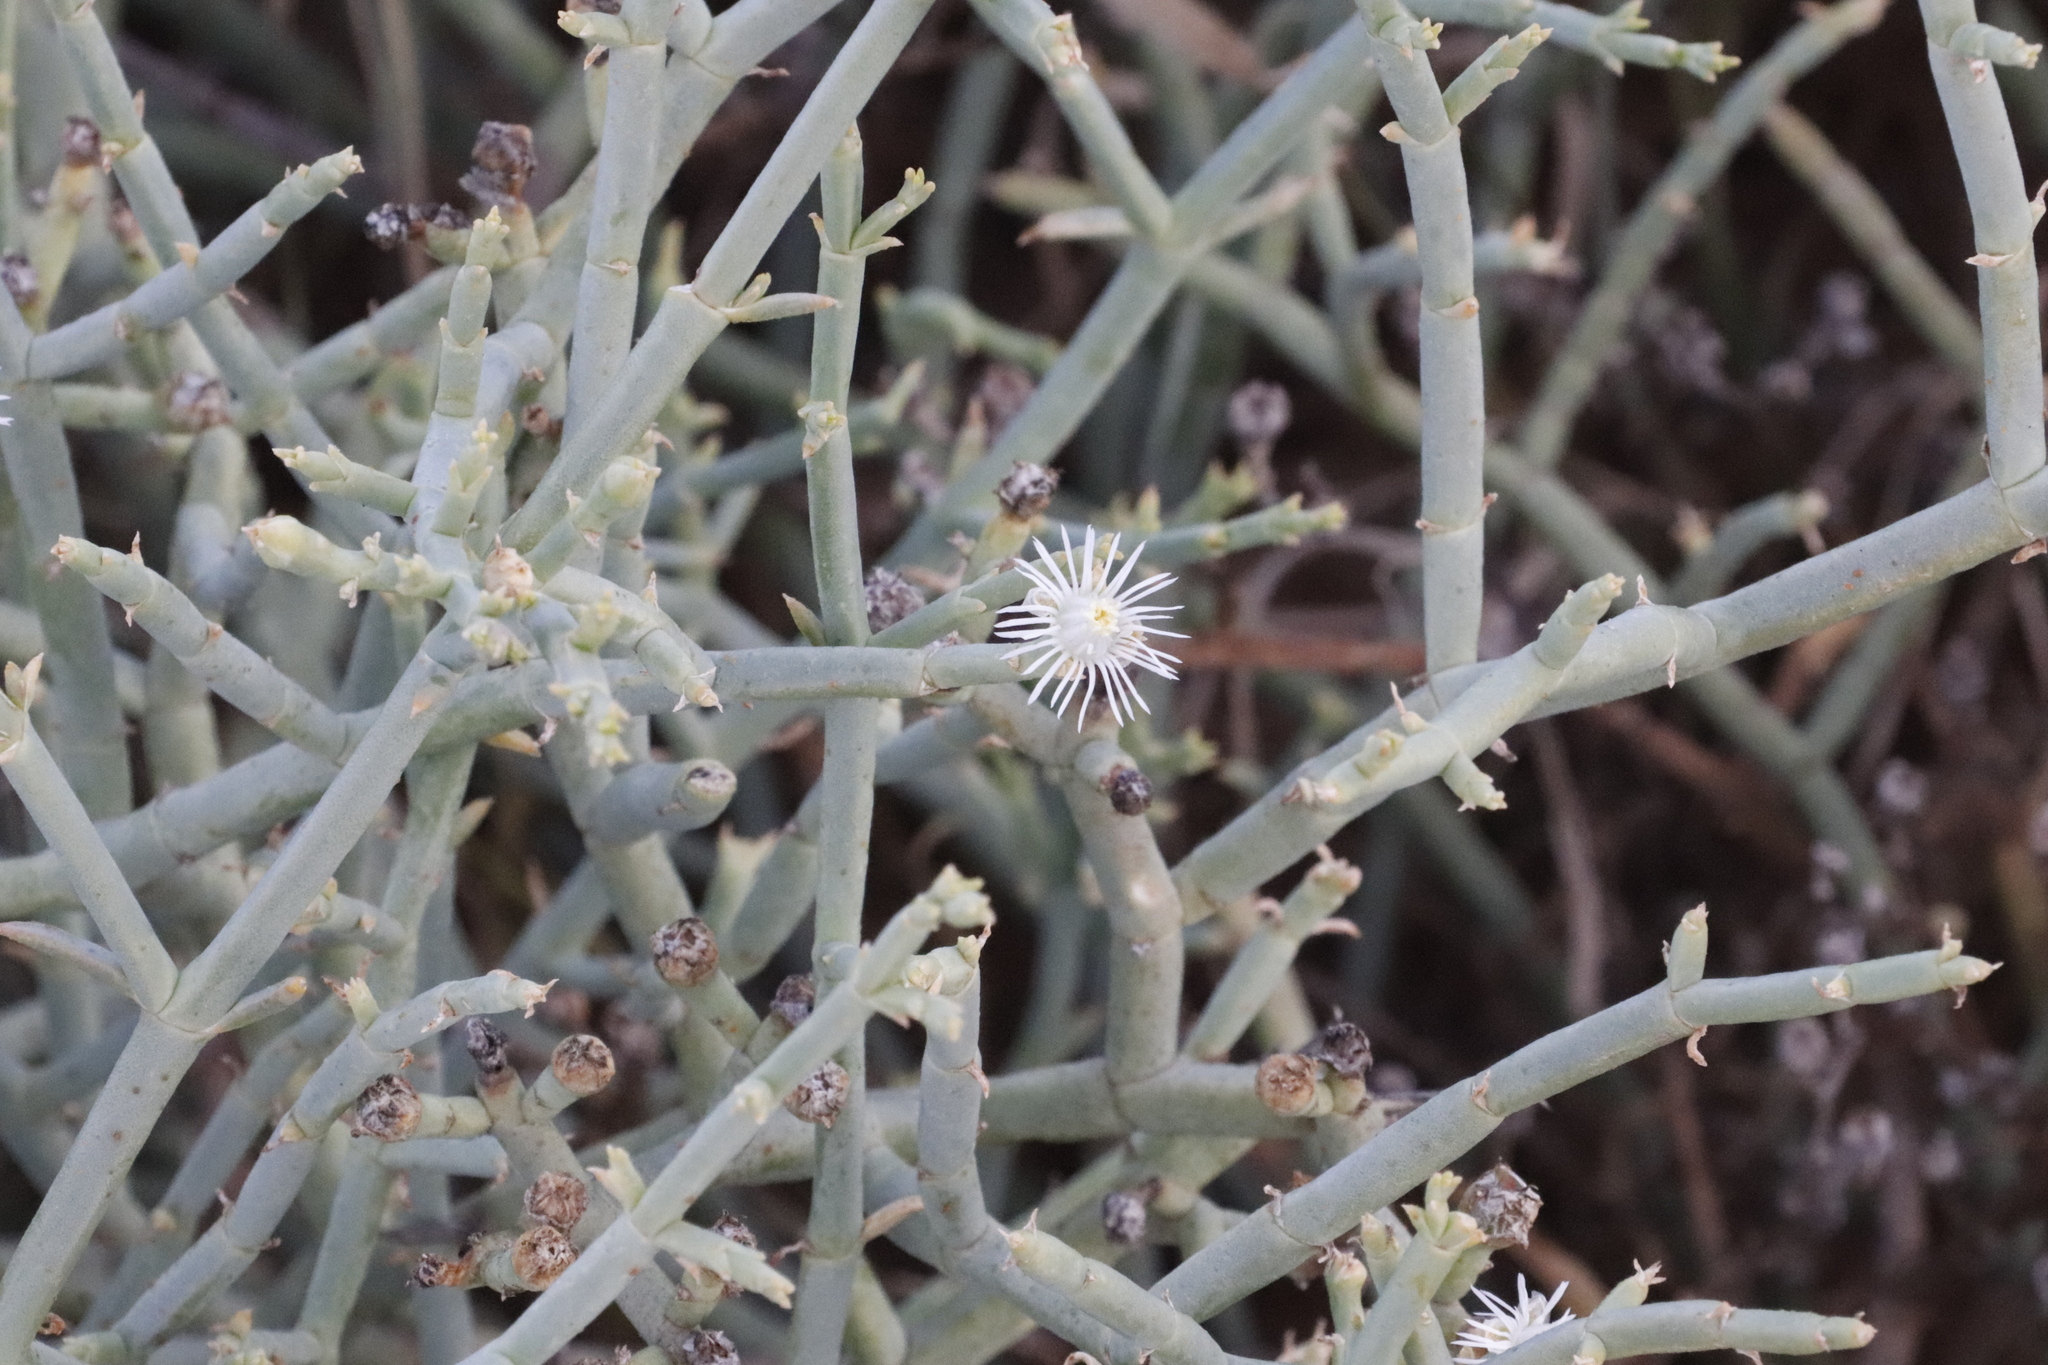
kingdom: Plantae
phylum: Tracheophyta
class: Magnoliopsida
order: Caryophyllales
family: Aizoaceae
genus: Mesembryanthemum
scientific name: Mesembryanthemum junceum
